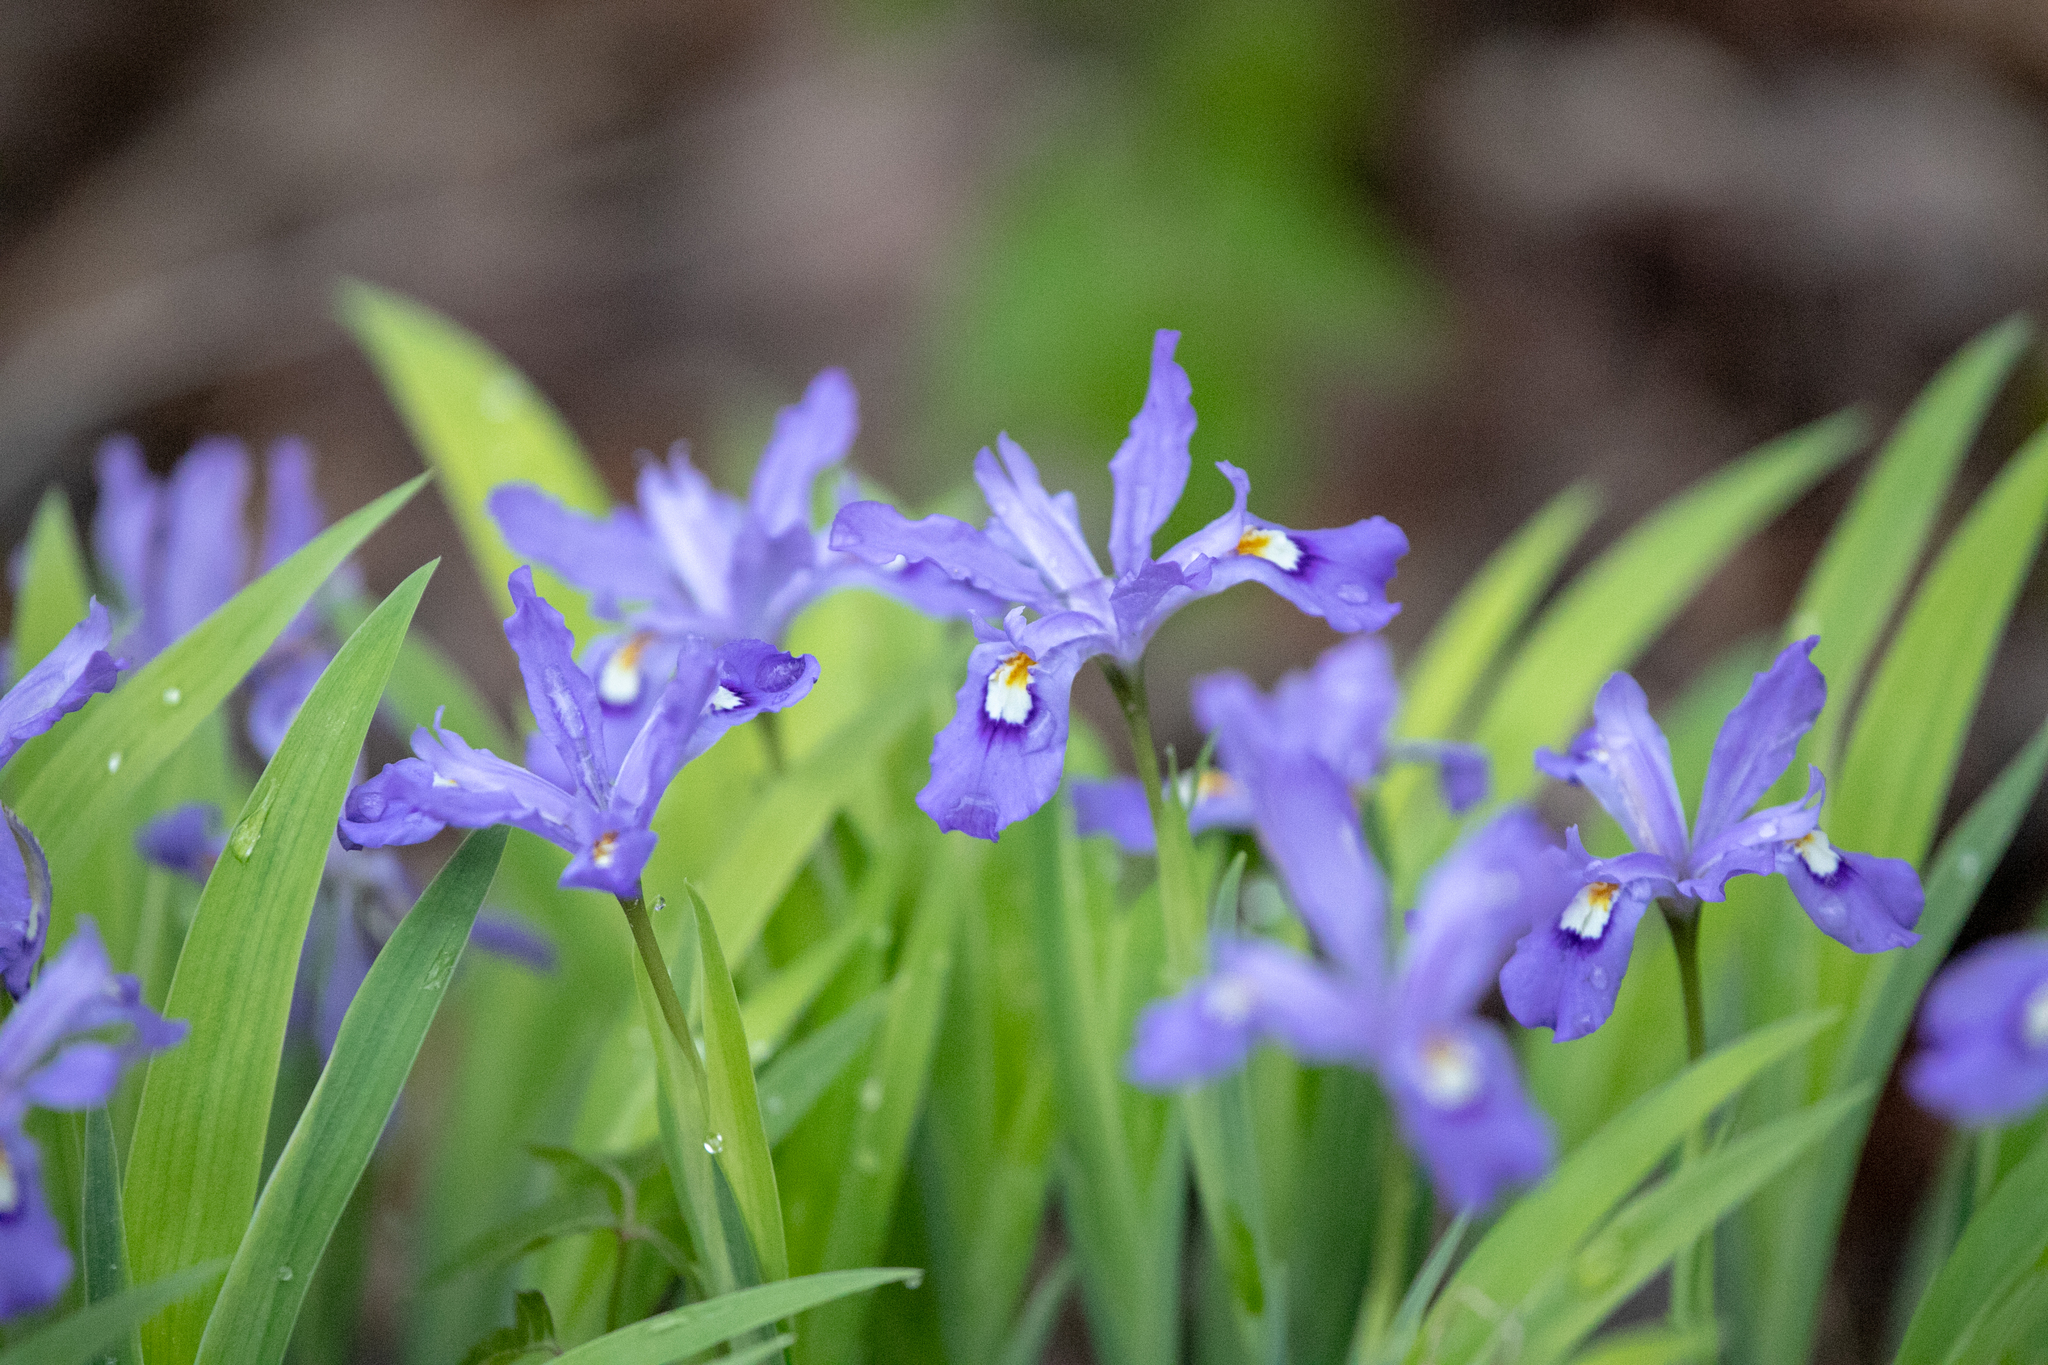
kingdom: Plantae
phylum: Tracheophyta
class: Liliopsida
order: Asparagales
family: Iridaceae
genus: Iris
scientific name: Iris cristata
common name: Crested iris
